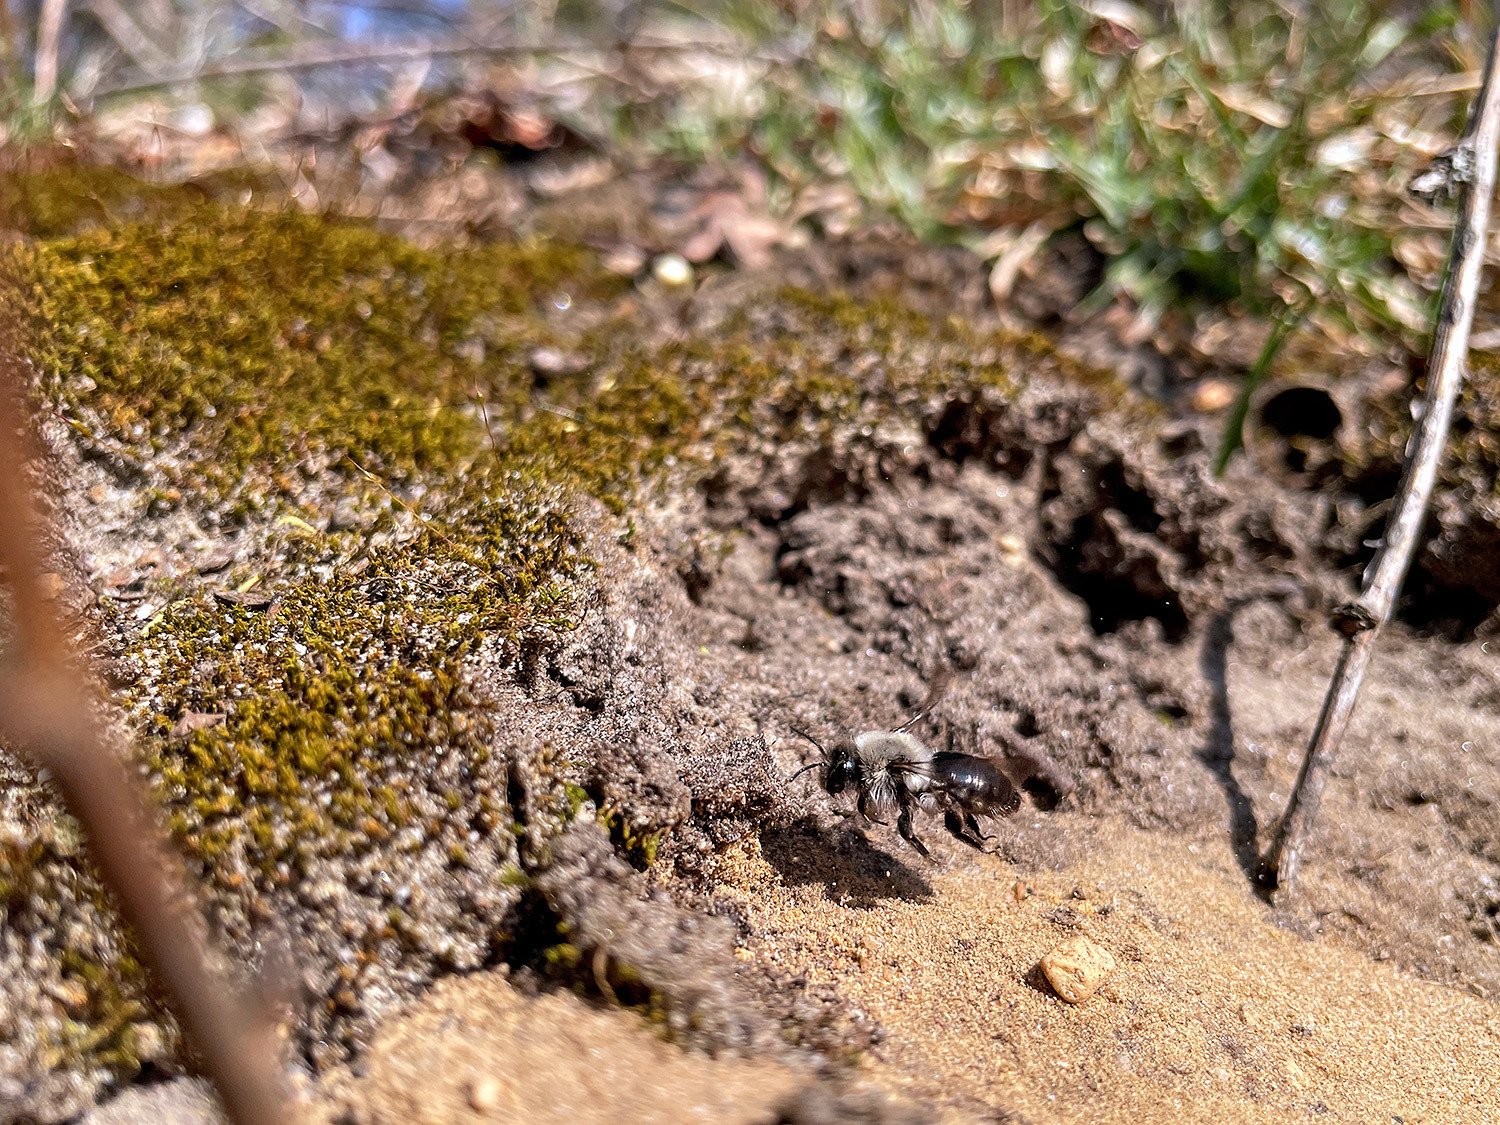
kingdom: Animalia
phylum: Arthropoda
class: Insecta
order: Hymenoptera
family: Andrenidae
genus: Andrena
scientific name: Andrena vaga
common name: Grey-backed mining bee
